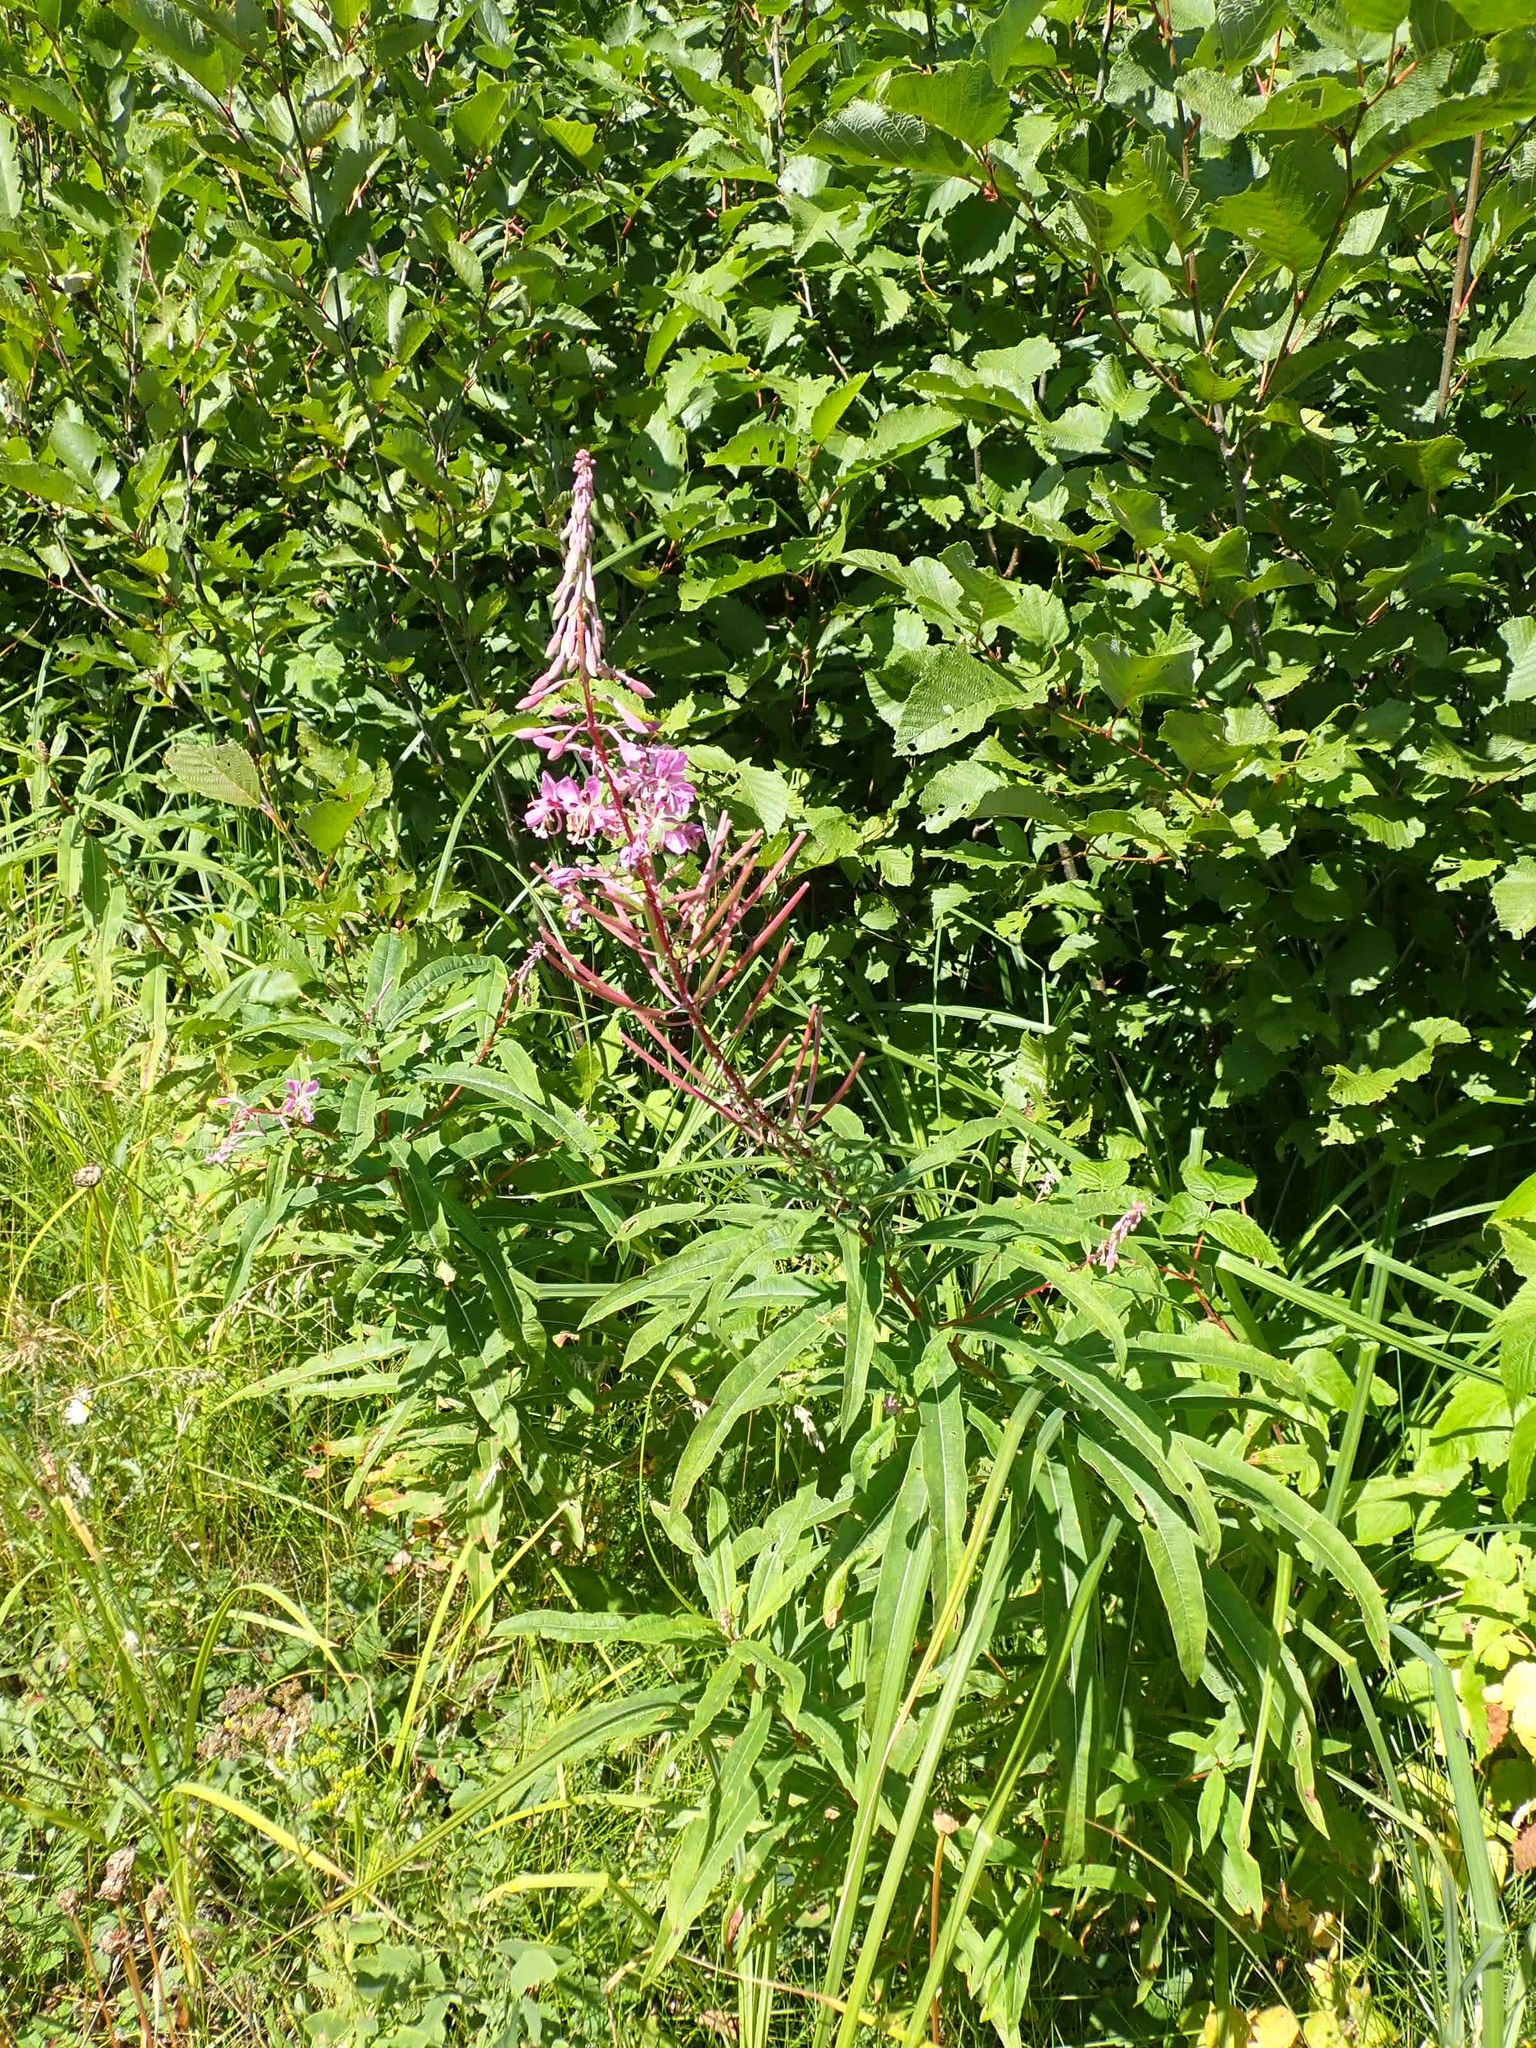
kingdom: Plantae
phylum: Tracheophyta
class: Magnoliopsida
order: Myrtales
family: Onagraceae
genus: Chamaenerion
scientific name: Chamaenerion angustifolium
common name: Fireweed
